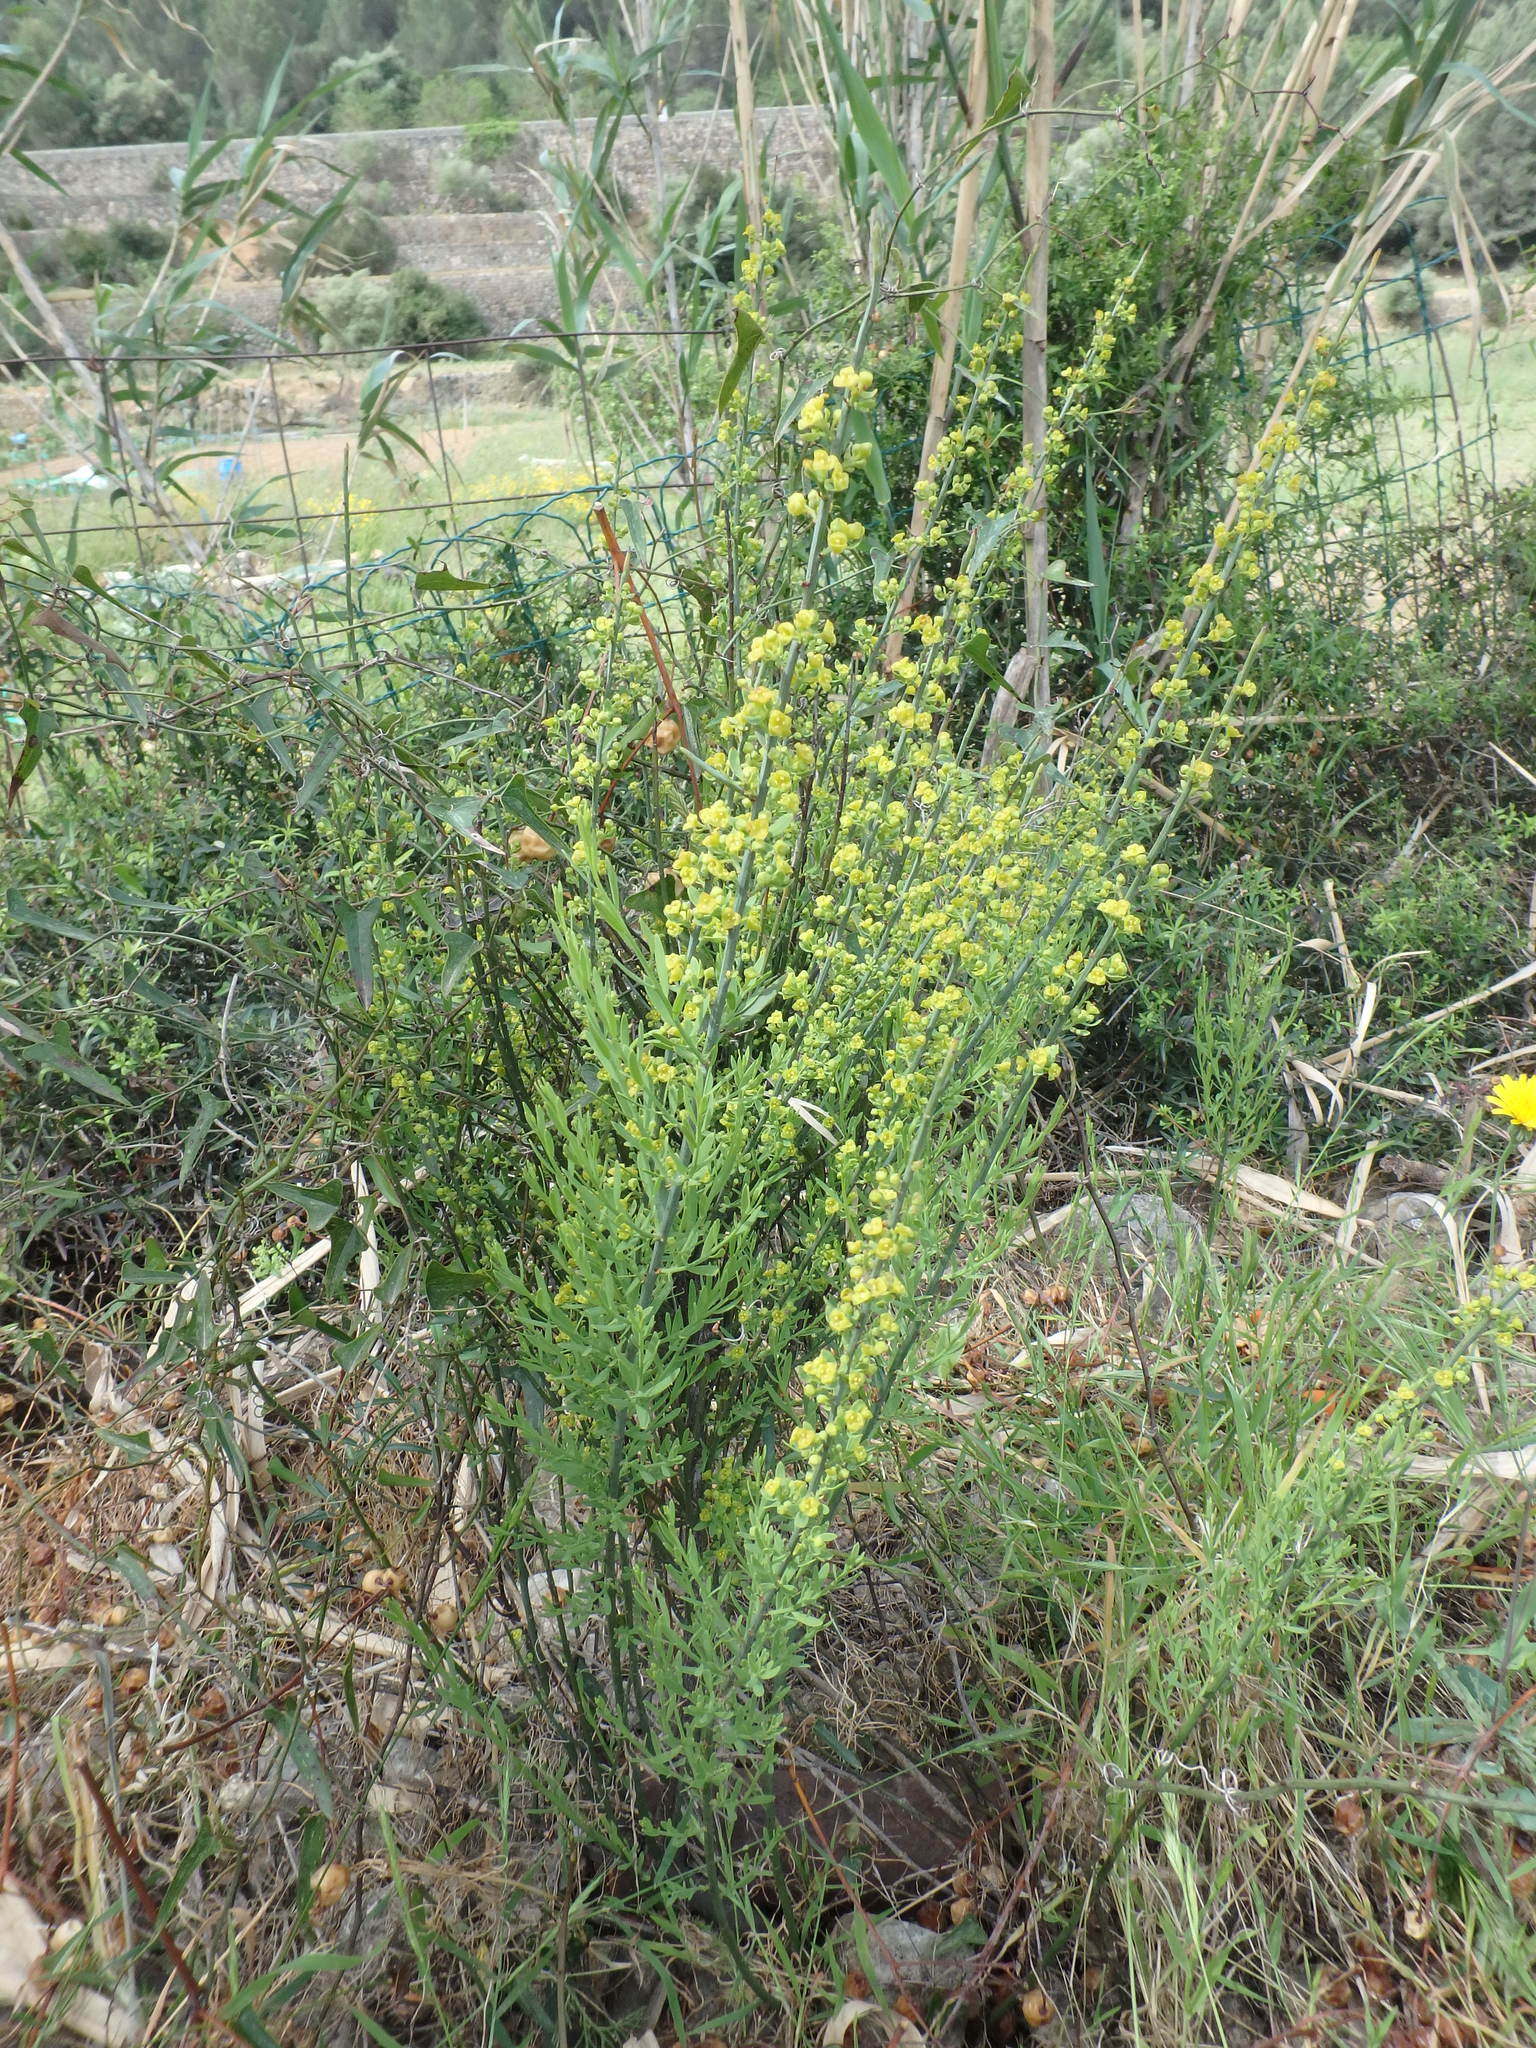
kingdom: Plantae
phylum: Tracheophyta
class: Magnoliopsida
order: Santalales
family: Santalaceae
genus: Osyris
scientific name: Osyris alba
